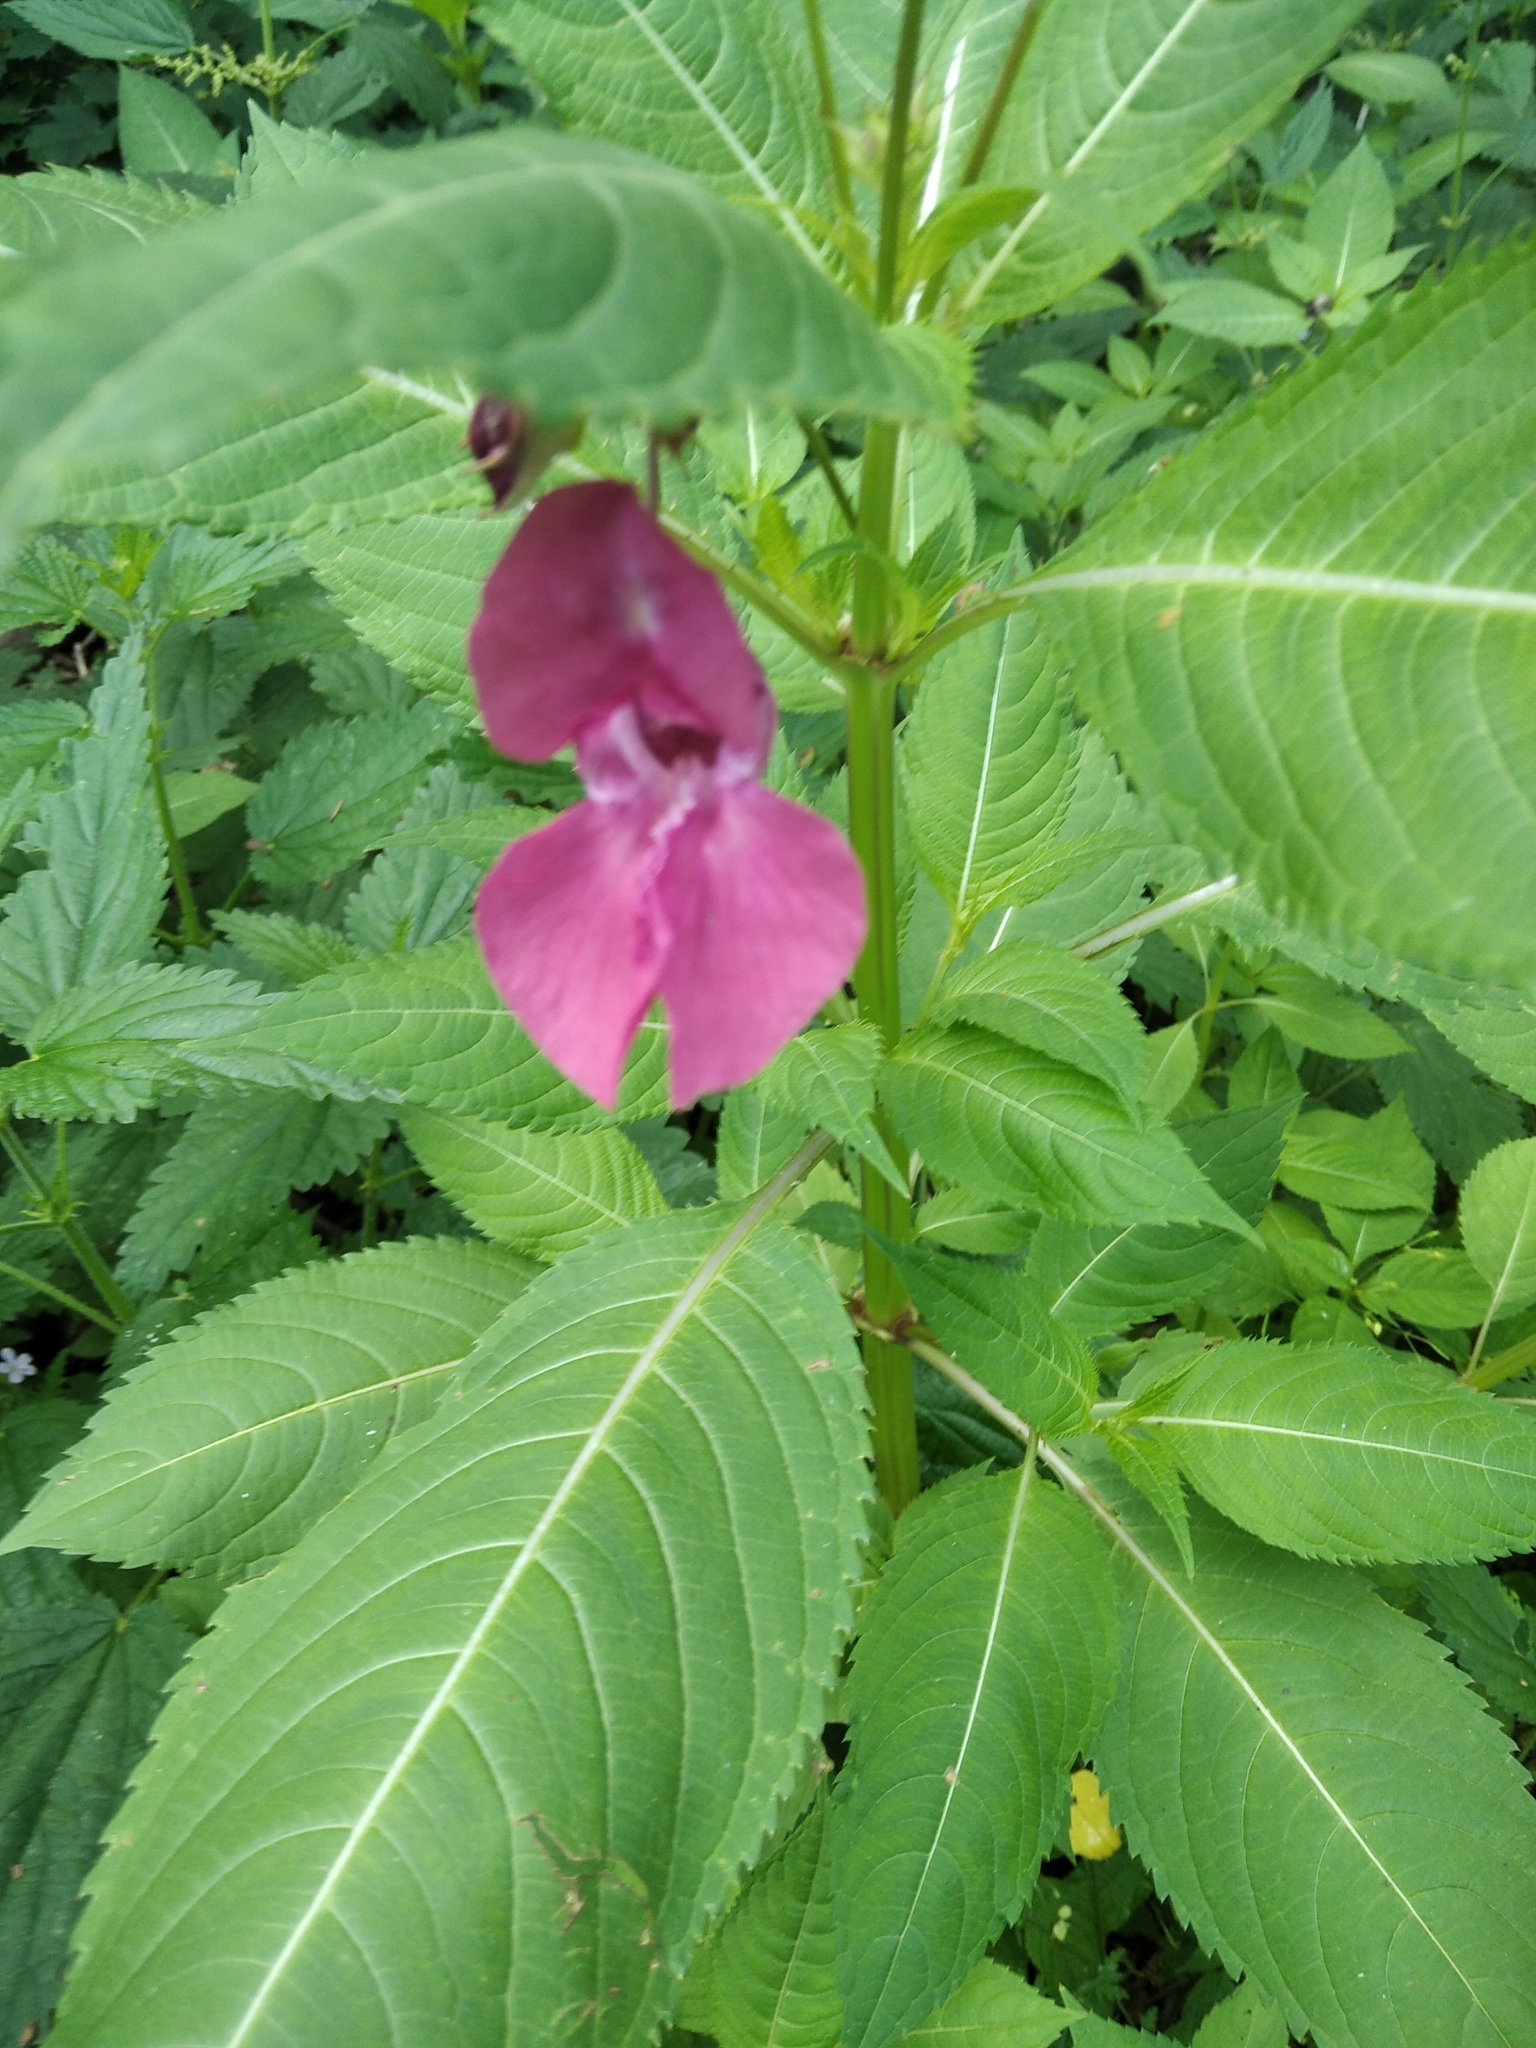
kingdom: Plantae
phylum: Tracheophyta
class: Magnoliopsida
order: Ericales
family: Balsaminaceae
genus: Impatiens
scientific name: Impatiens glandulifera
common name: Himalayan balsam
